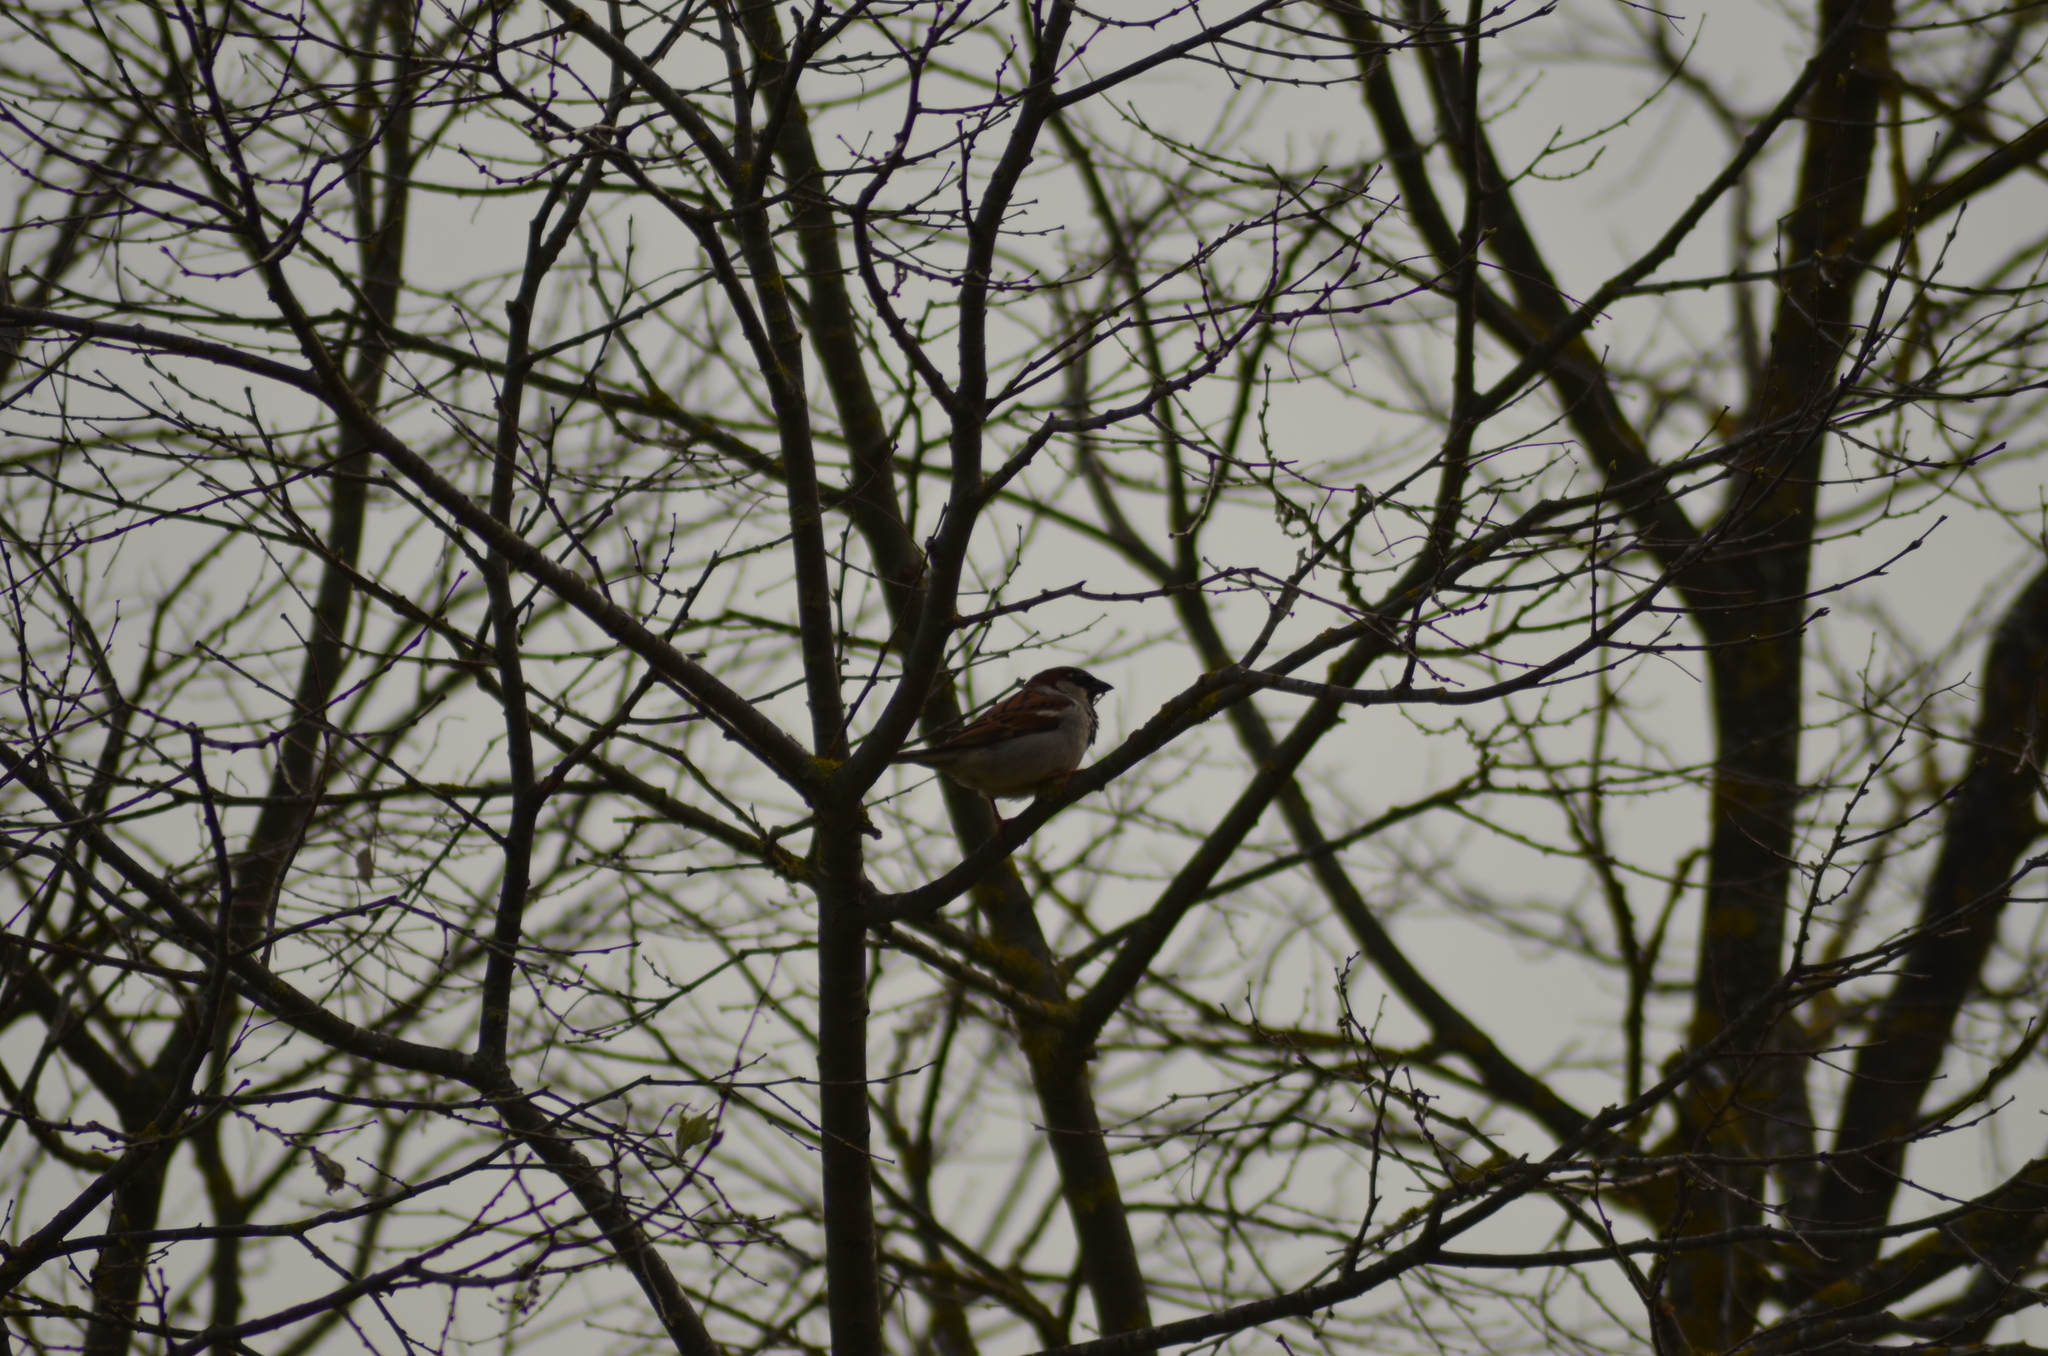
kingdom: Animalia
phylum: Chordata
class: Aves
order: Passeriformes
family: Passeridae
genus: Passer
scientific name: Passer domesticus
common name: House sparrow
